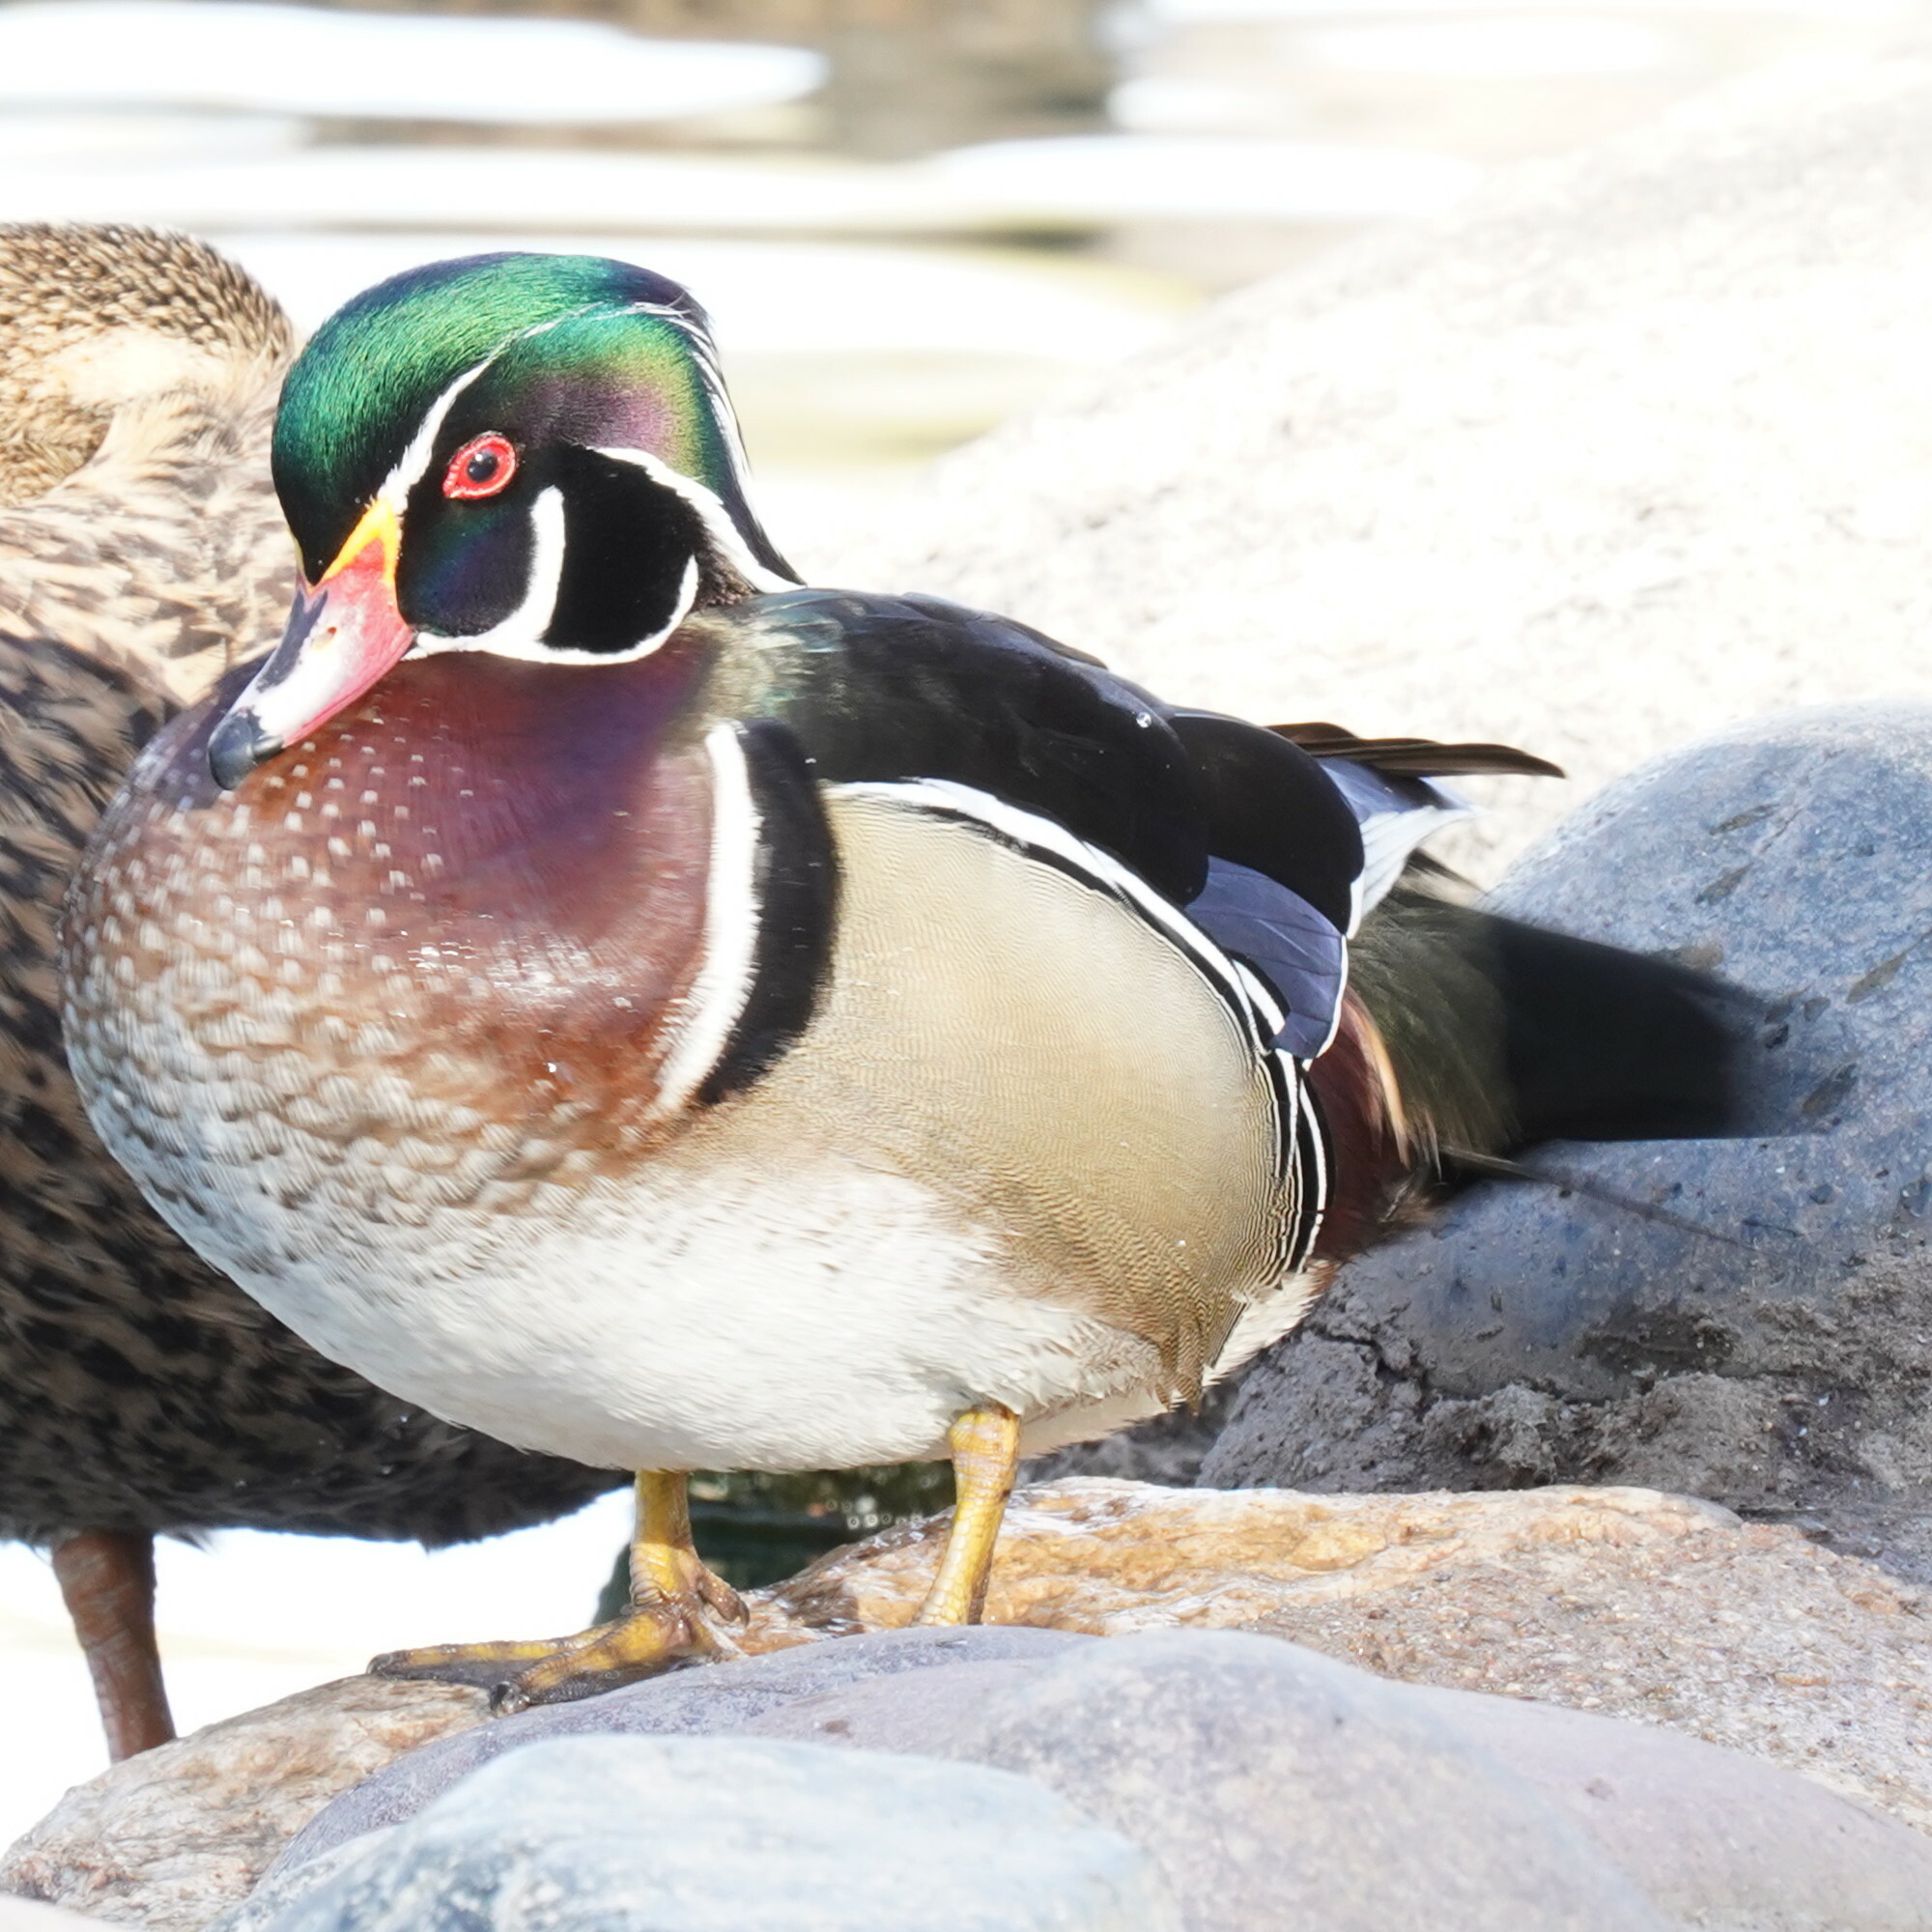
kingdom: Animalia
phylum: Chordata
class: Aves
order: Anseriformes
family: Anatidae
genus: Aix
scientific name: Aix sponsa
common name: Wood duck
